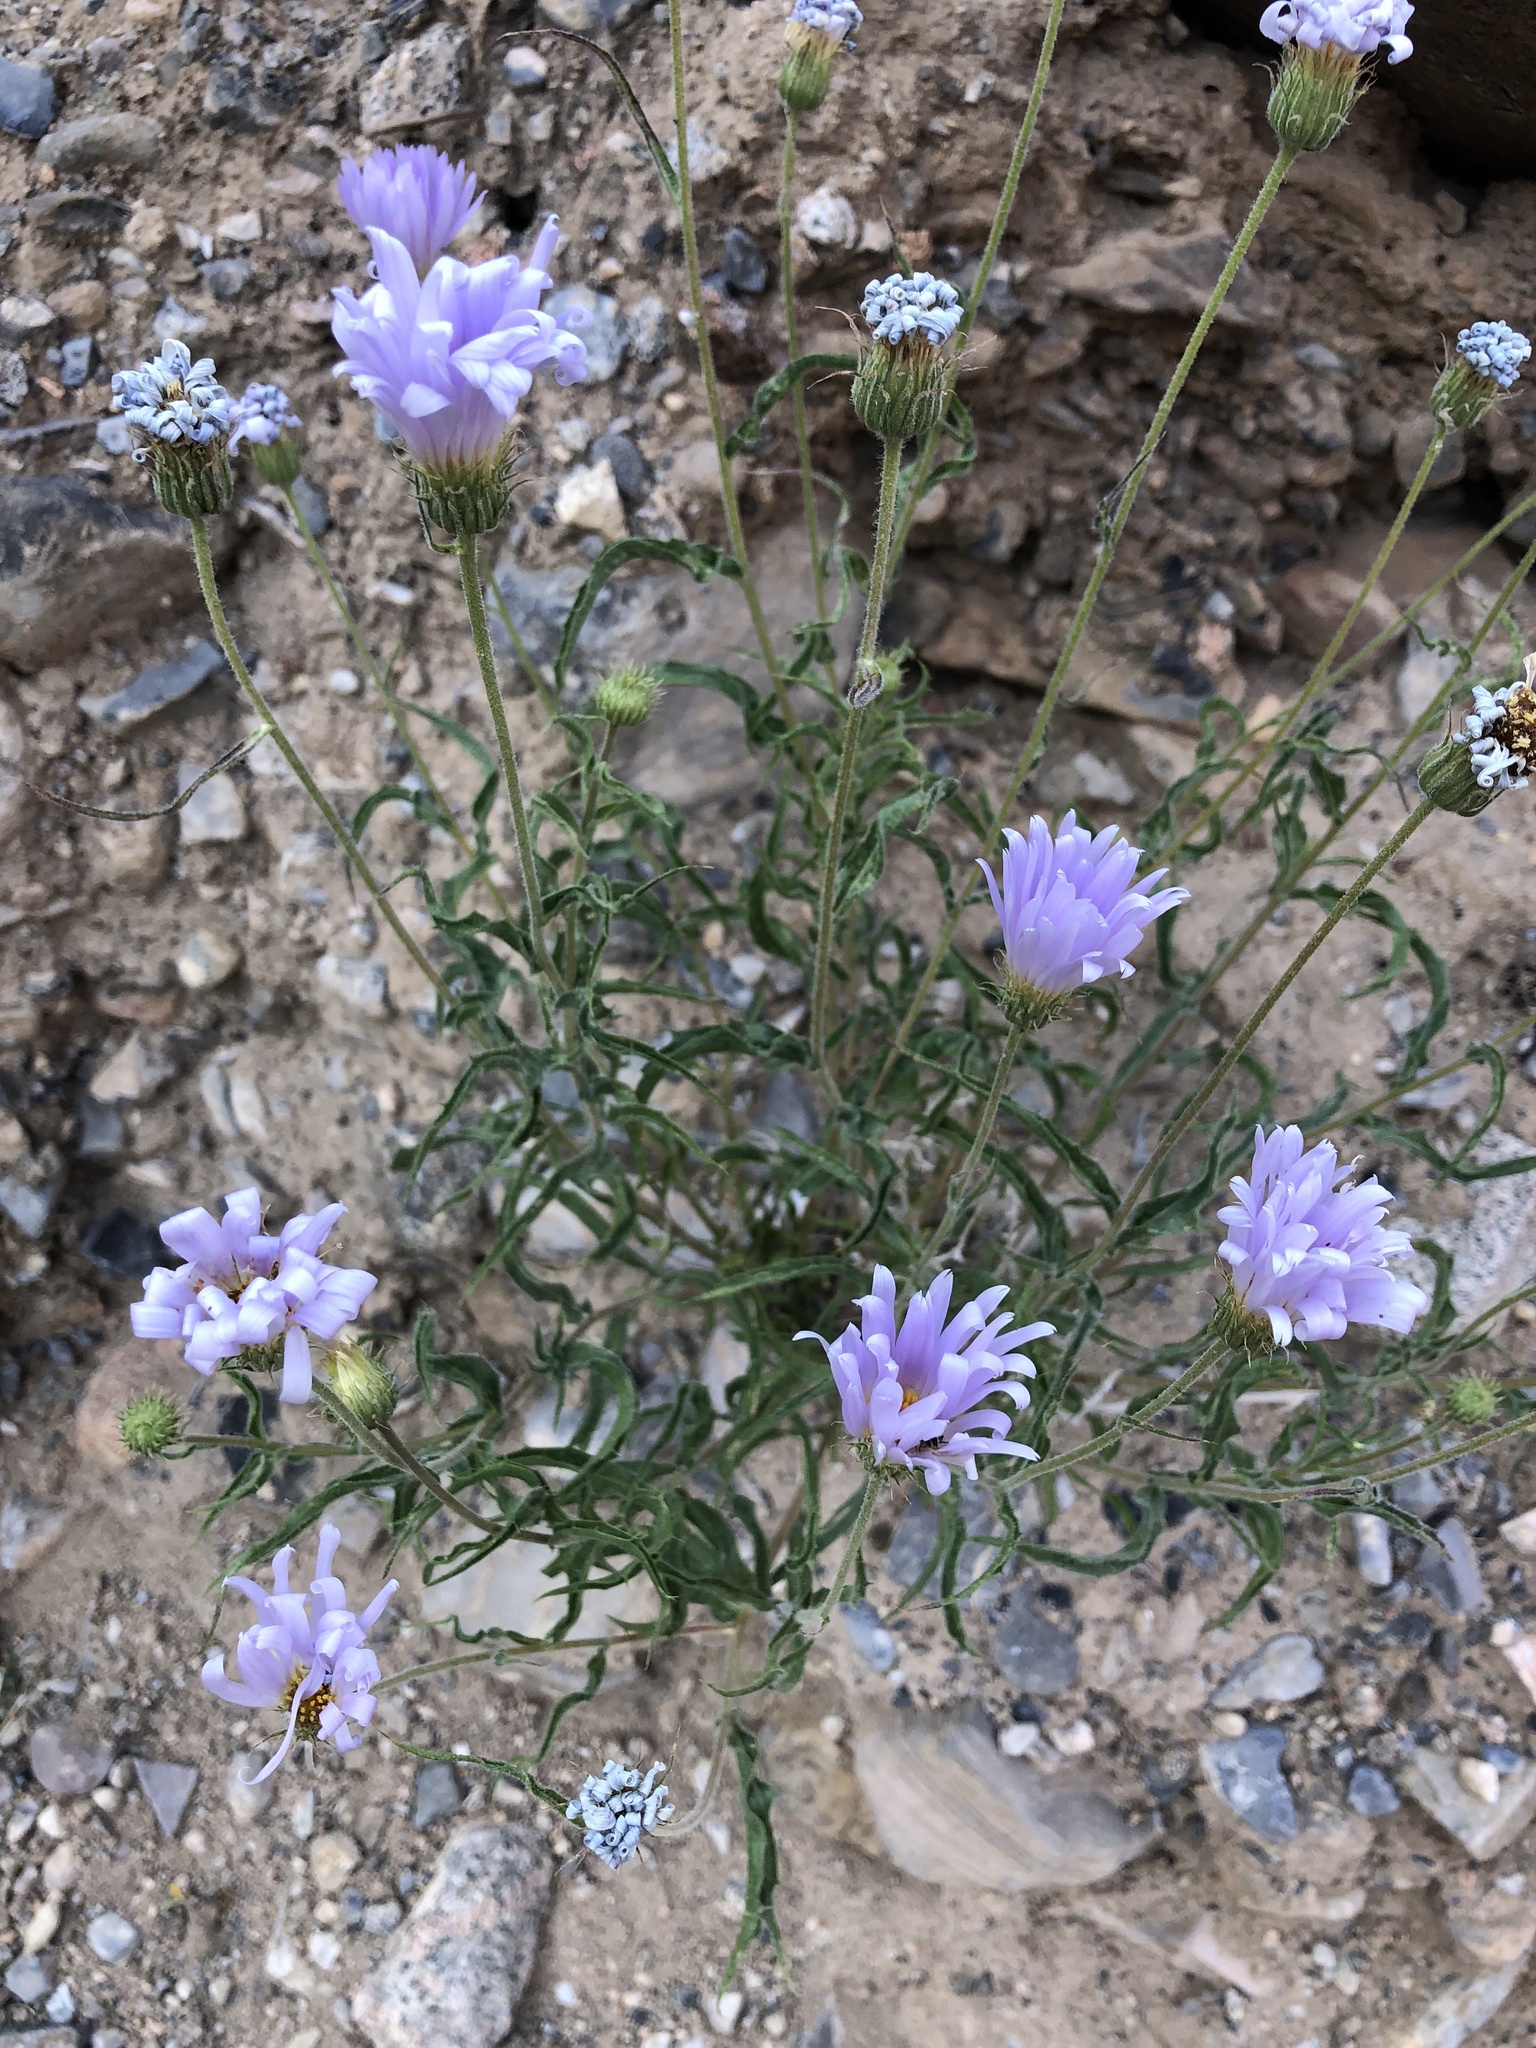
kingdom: Plantae
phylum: Tracheophyta
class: Magnoliopsida
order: Asterales
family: Asteraceae
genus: Xylorhiza
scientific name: Xylorhiza tortifolia
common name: Hurt-leaf woody-aster
